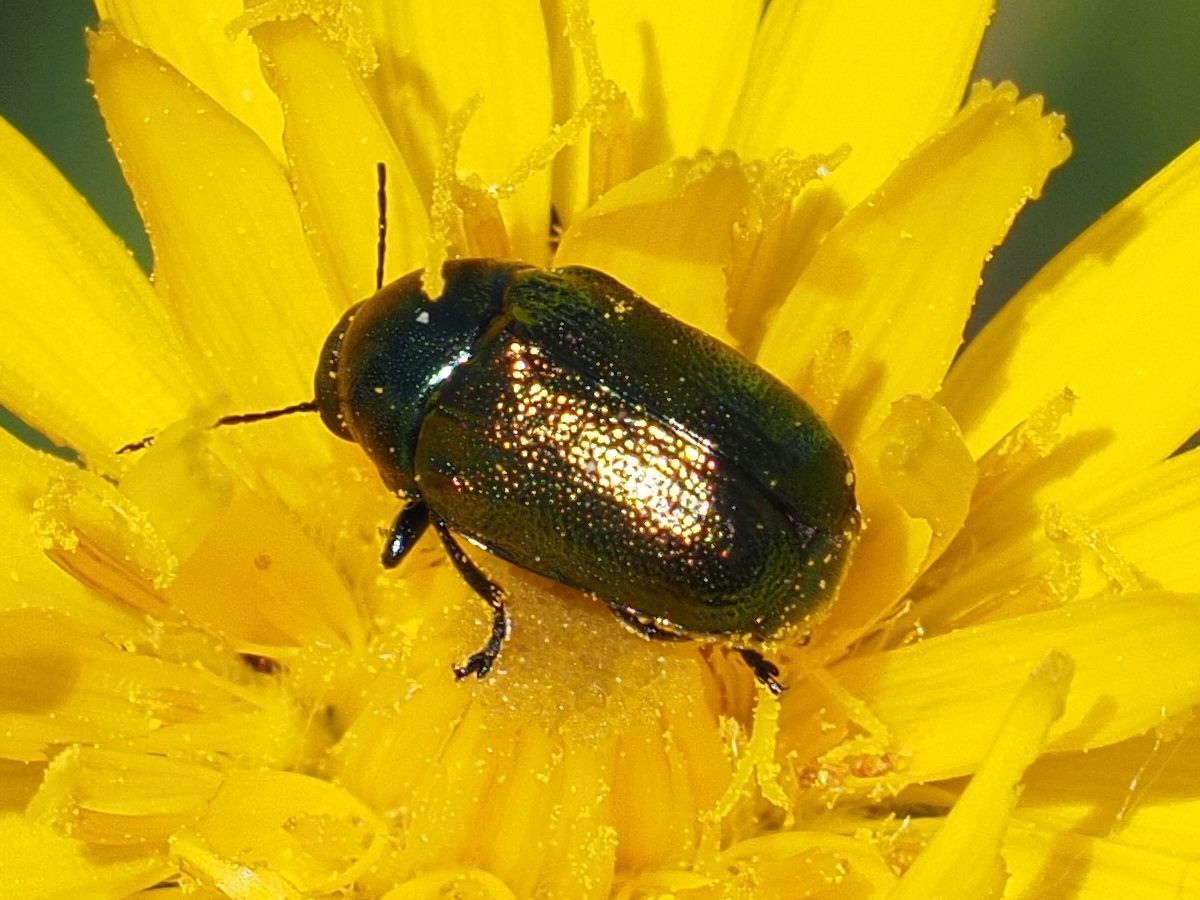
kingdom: Animalia
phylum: Arthropoda
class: Insecta
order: Coleoptera
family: Chrysomelidae
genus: Cryptocephalus
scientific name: Cryptocephalus
